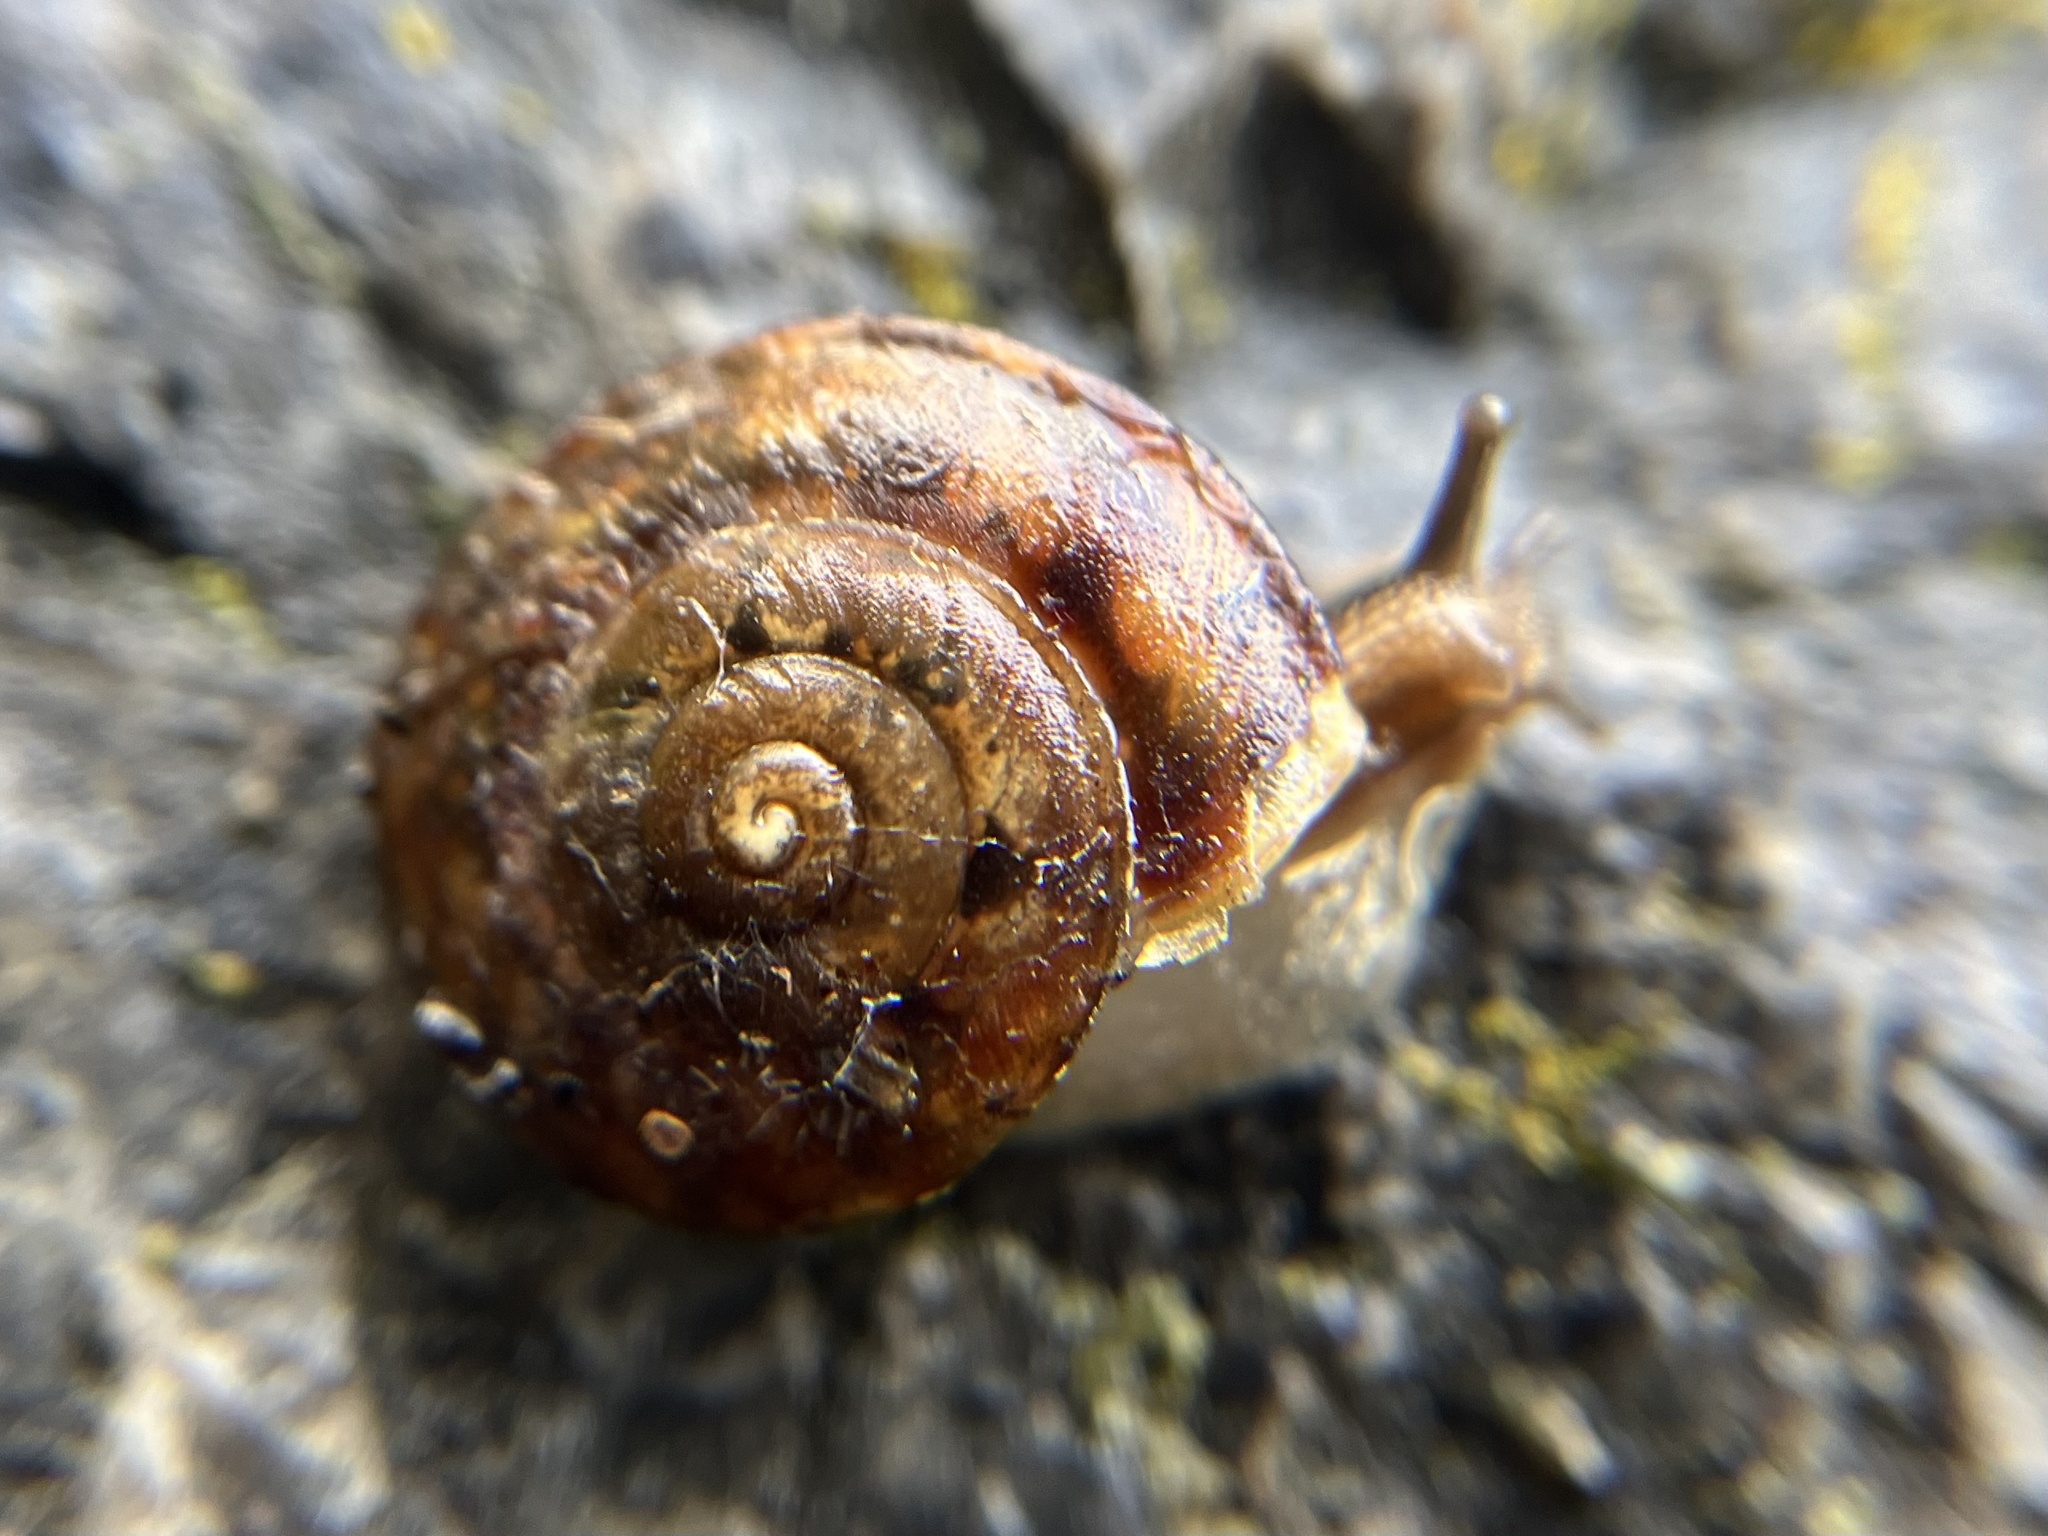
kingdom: Animalia
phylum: Mollusca
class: Gastropoda
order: Stylommatophora
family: Helicidae
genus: Helicigona
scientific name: Helicigona lapicida
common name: Lapidary snail
